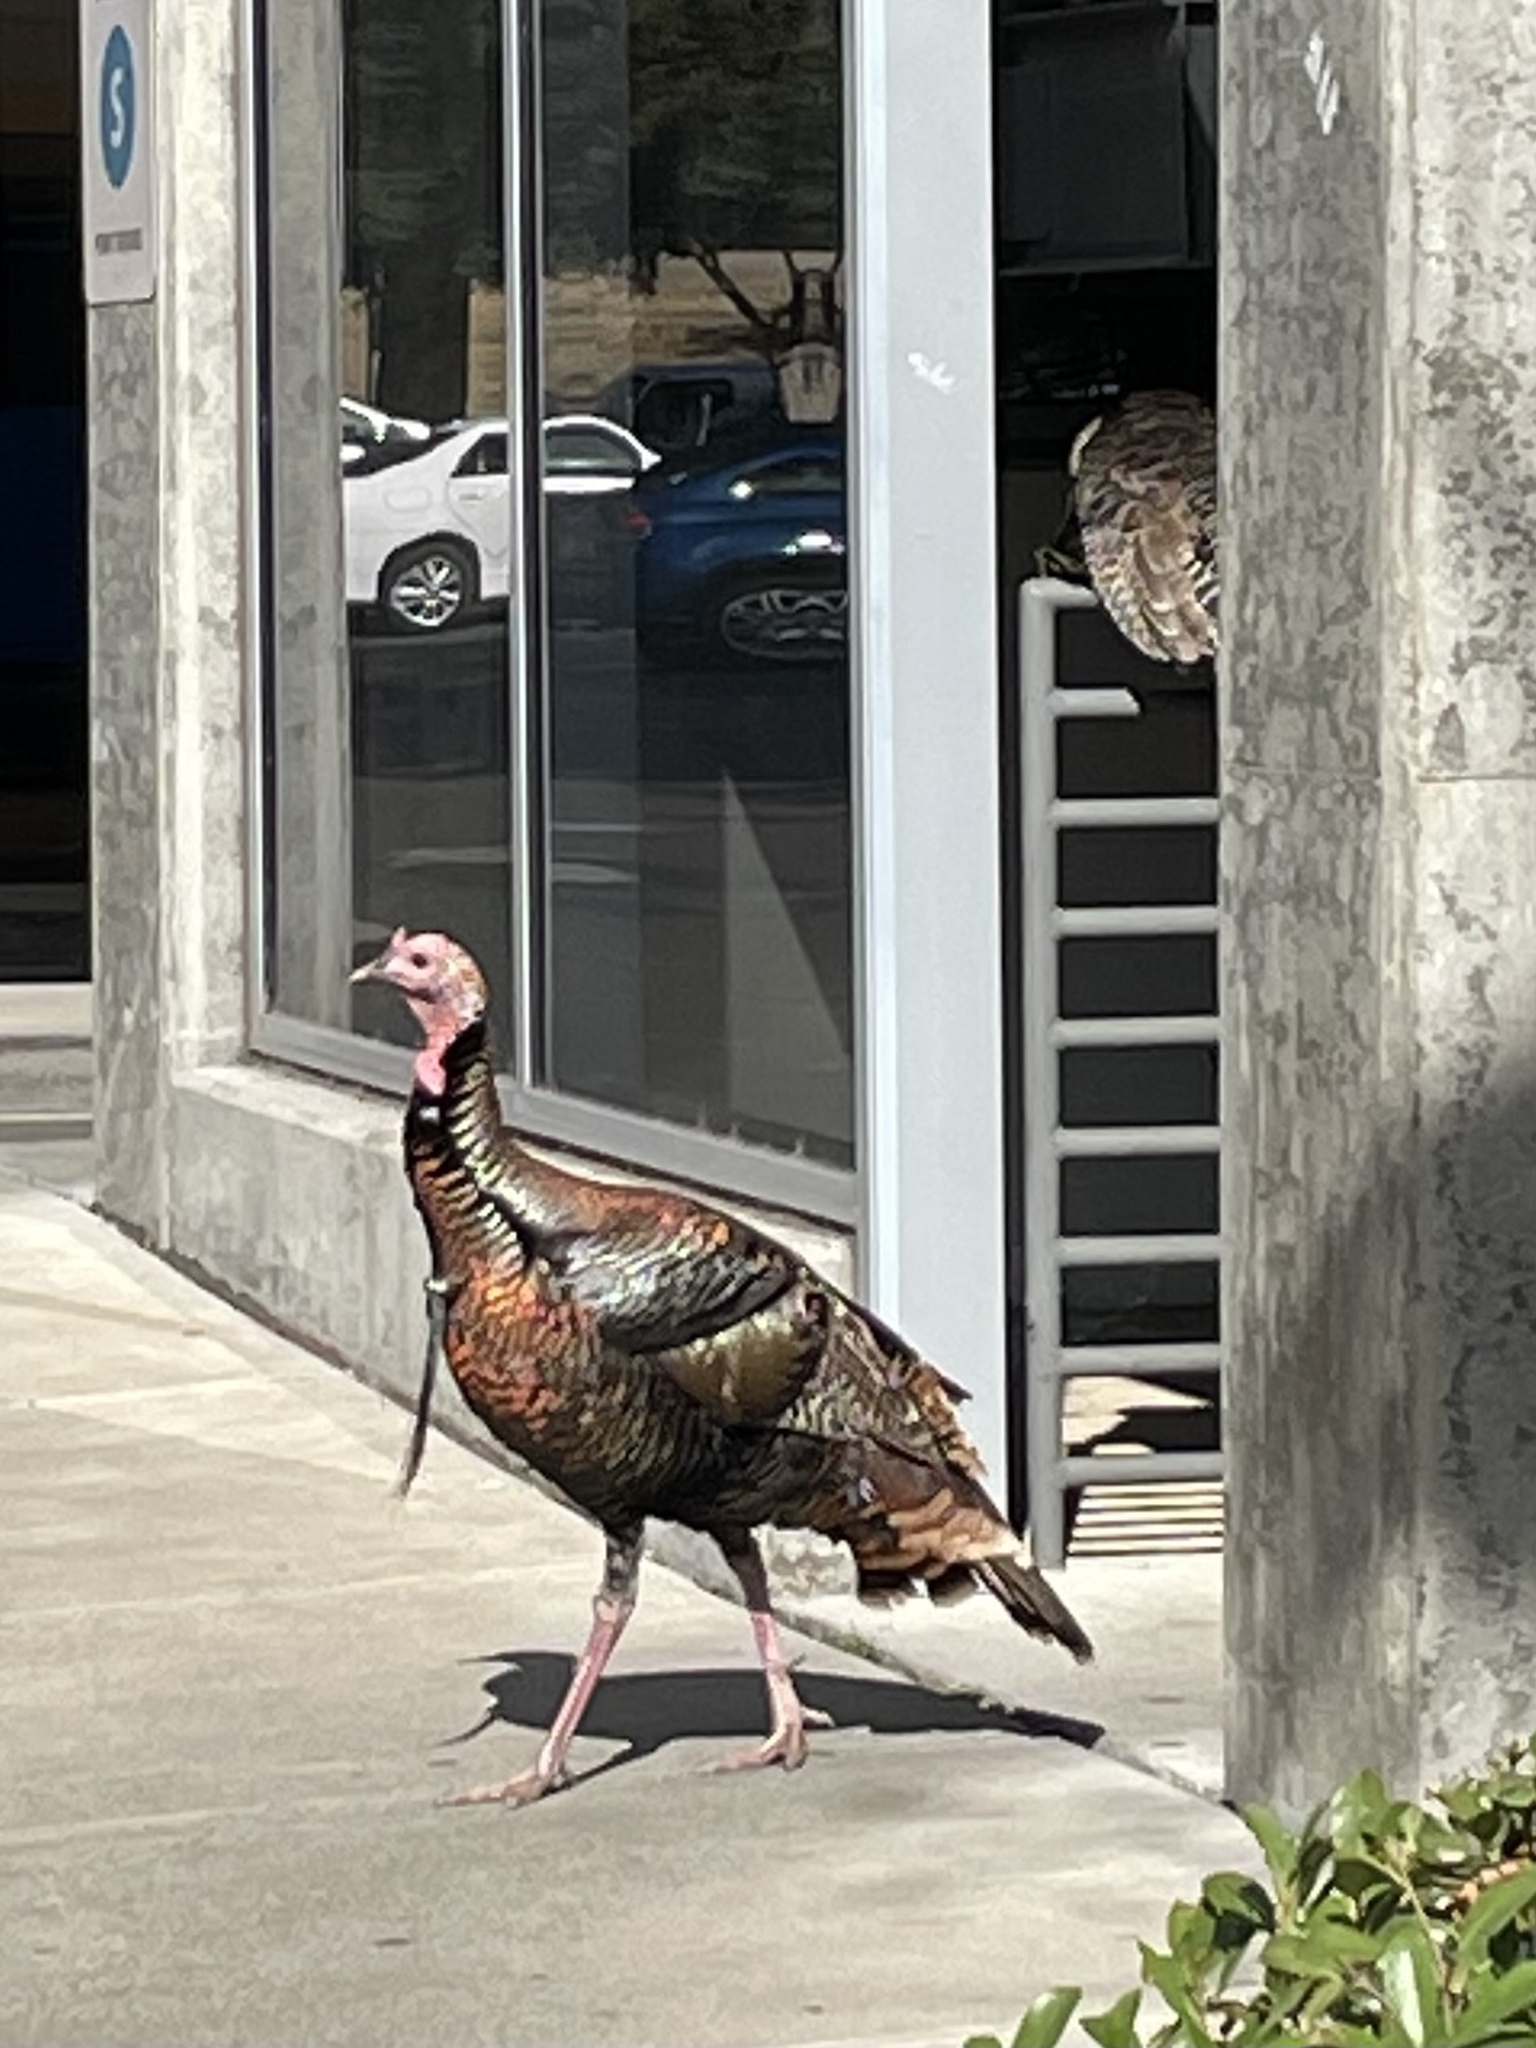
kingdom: Animalia
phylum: Chordata
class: Aves
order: Galliformes
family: Phasianidae
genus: Meleagris
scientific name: Meleagris gallopavo
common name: Wild turkey
